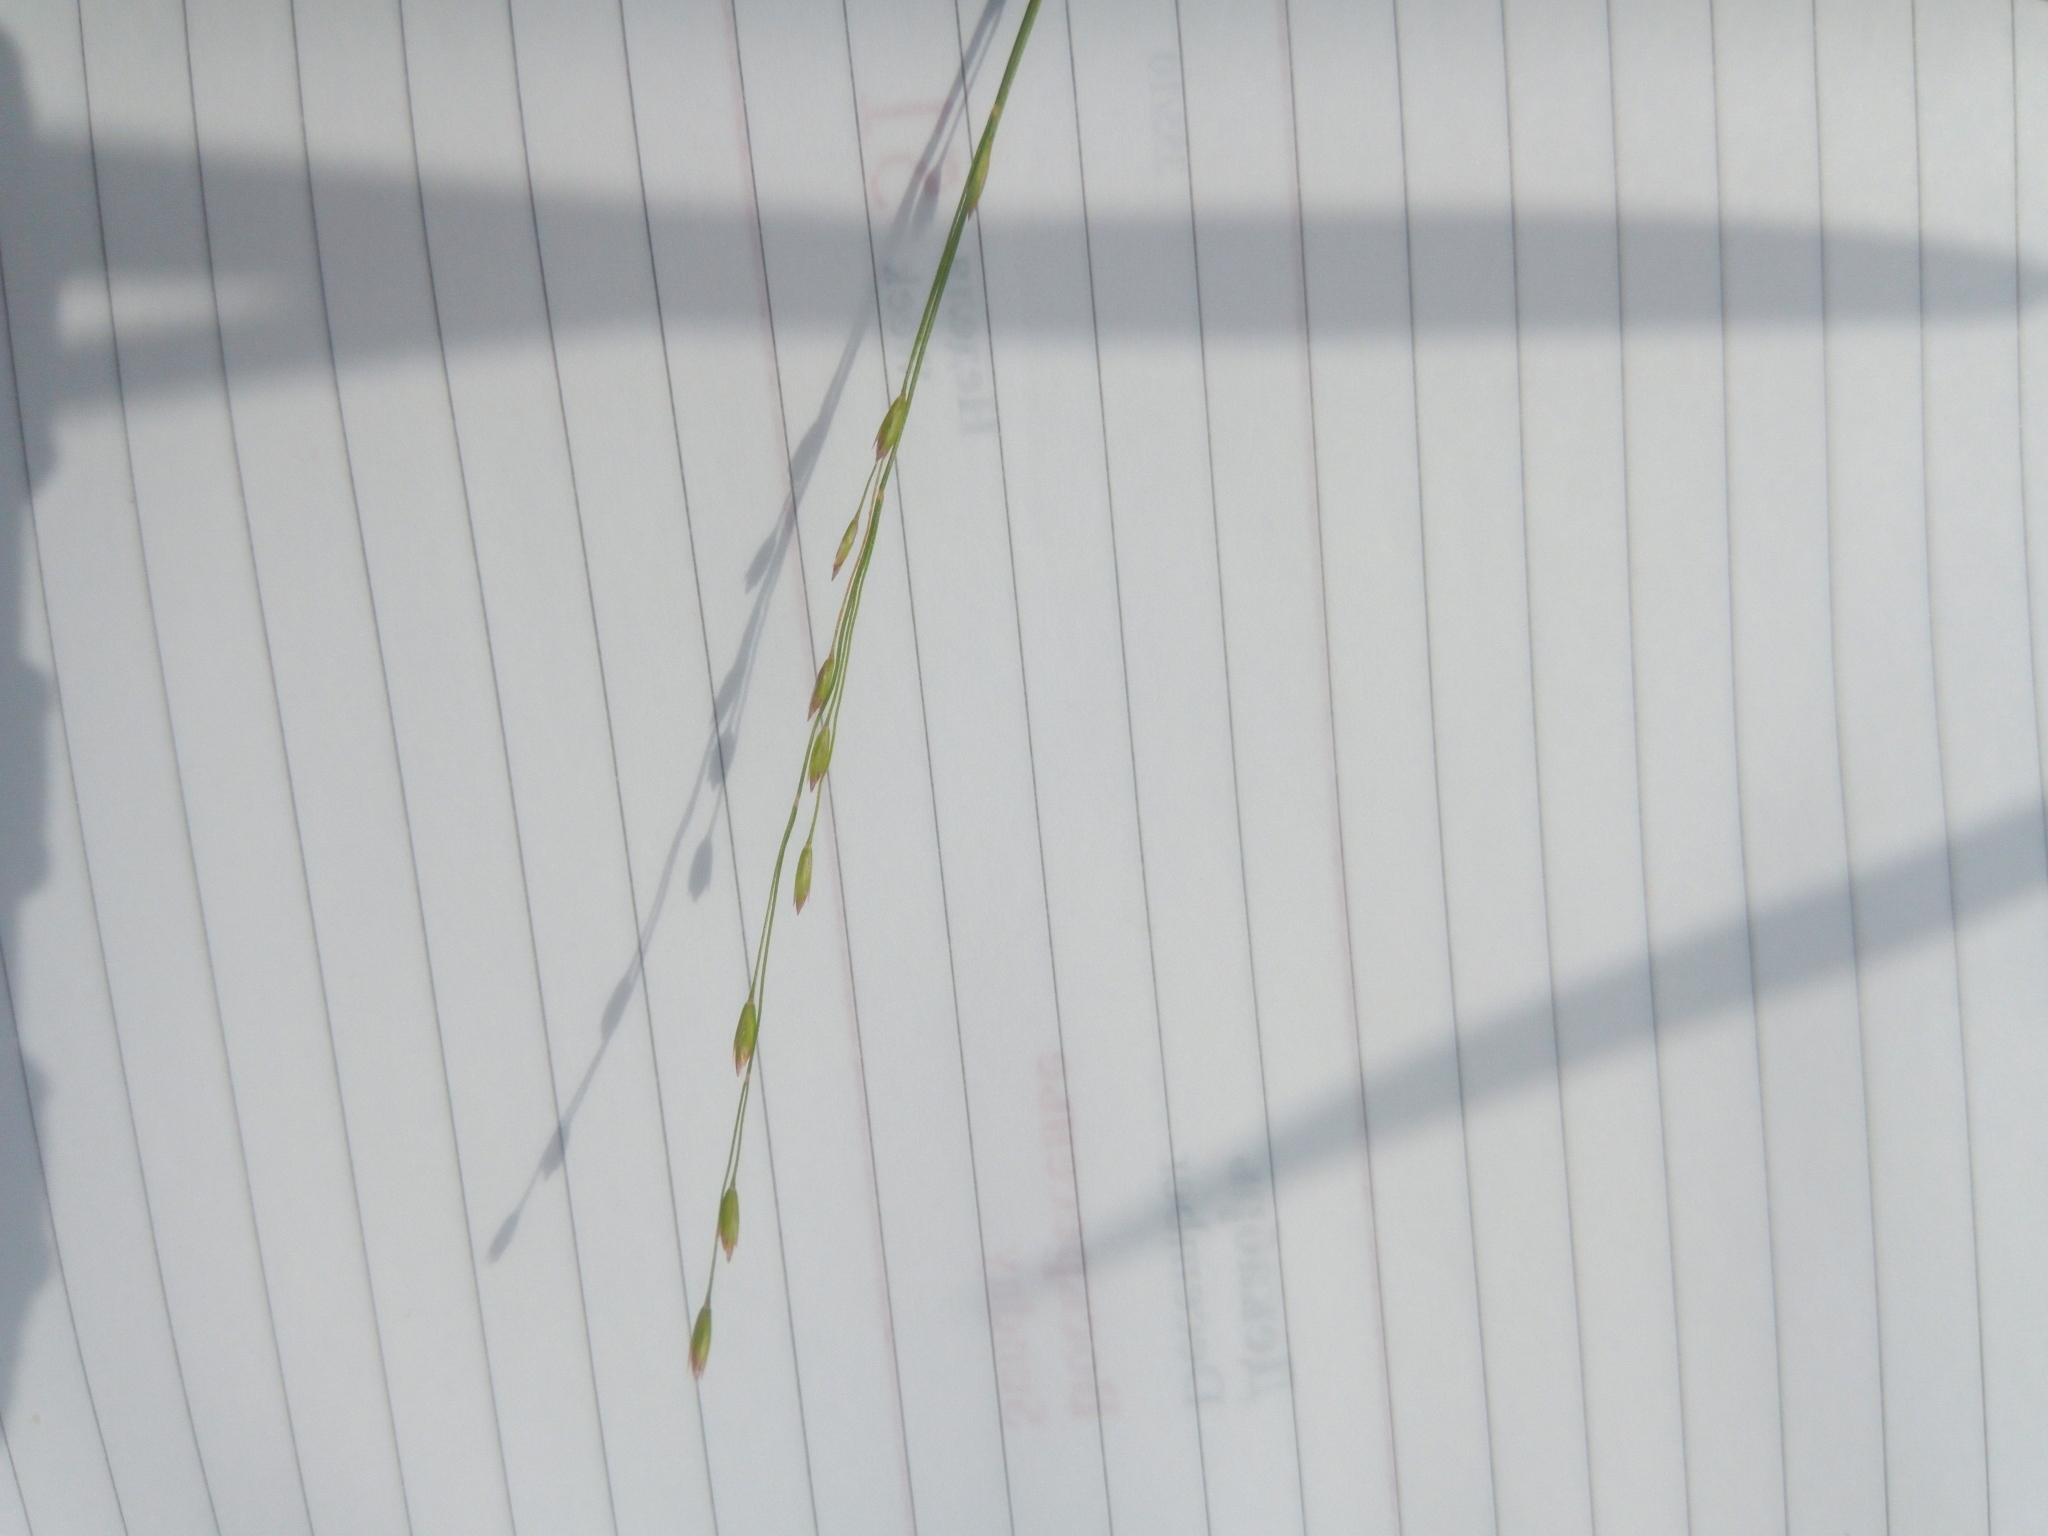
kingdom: Plantae
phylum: Tracheophyta
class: Liliopsida
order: Poales
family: Poaceae
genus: Poa
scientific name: Poa palustris
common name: Swamp meadow-grass
